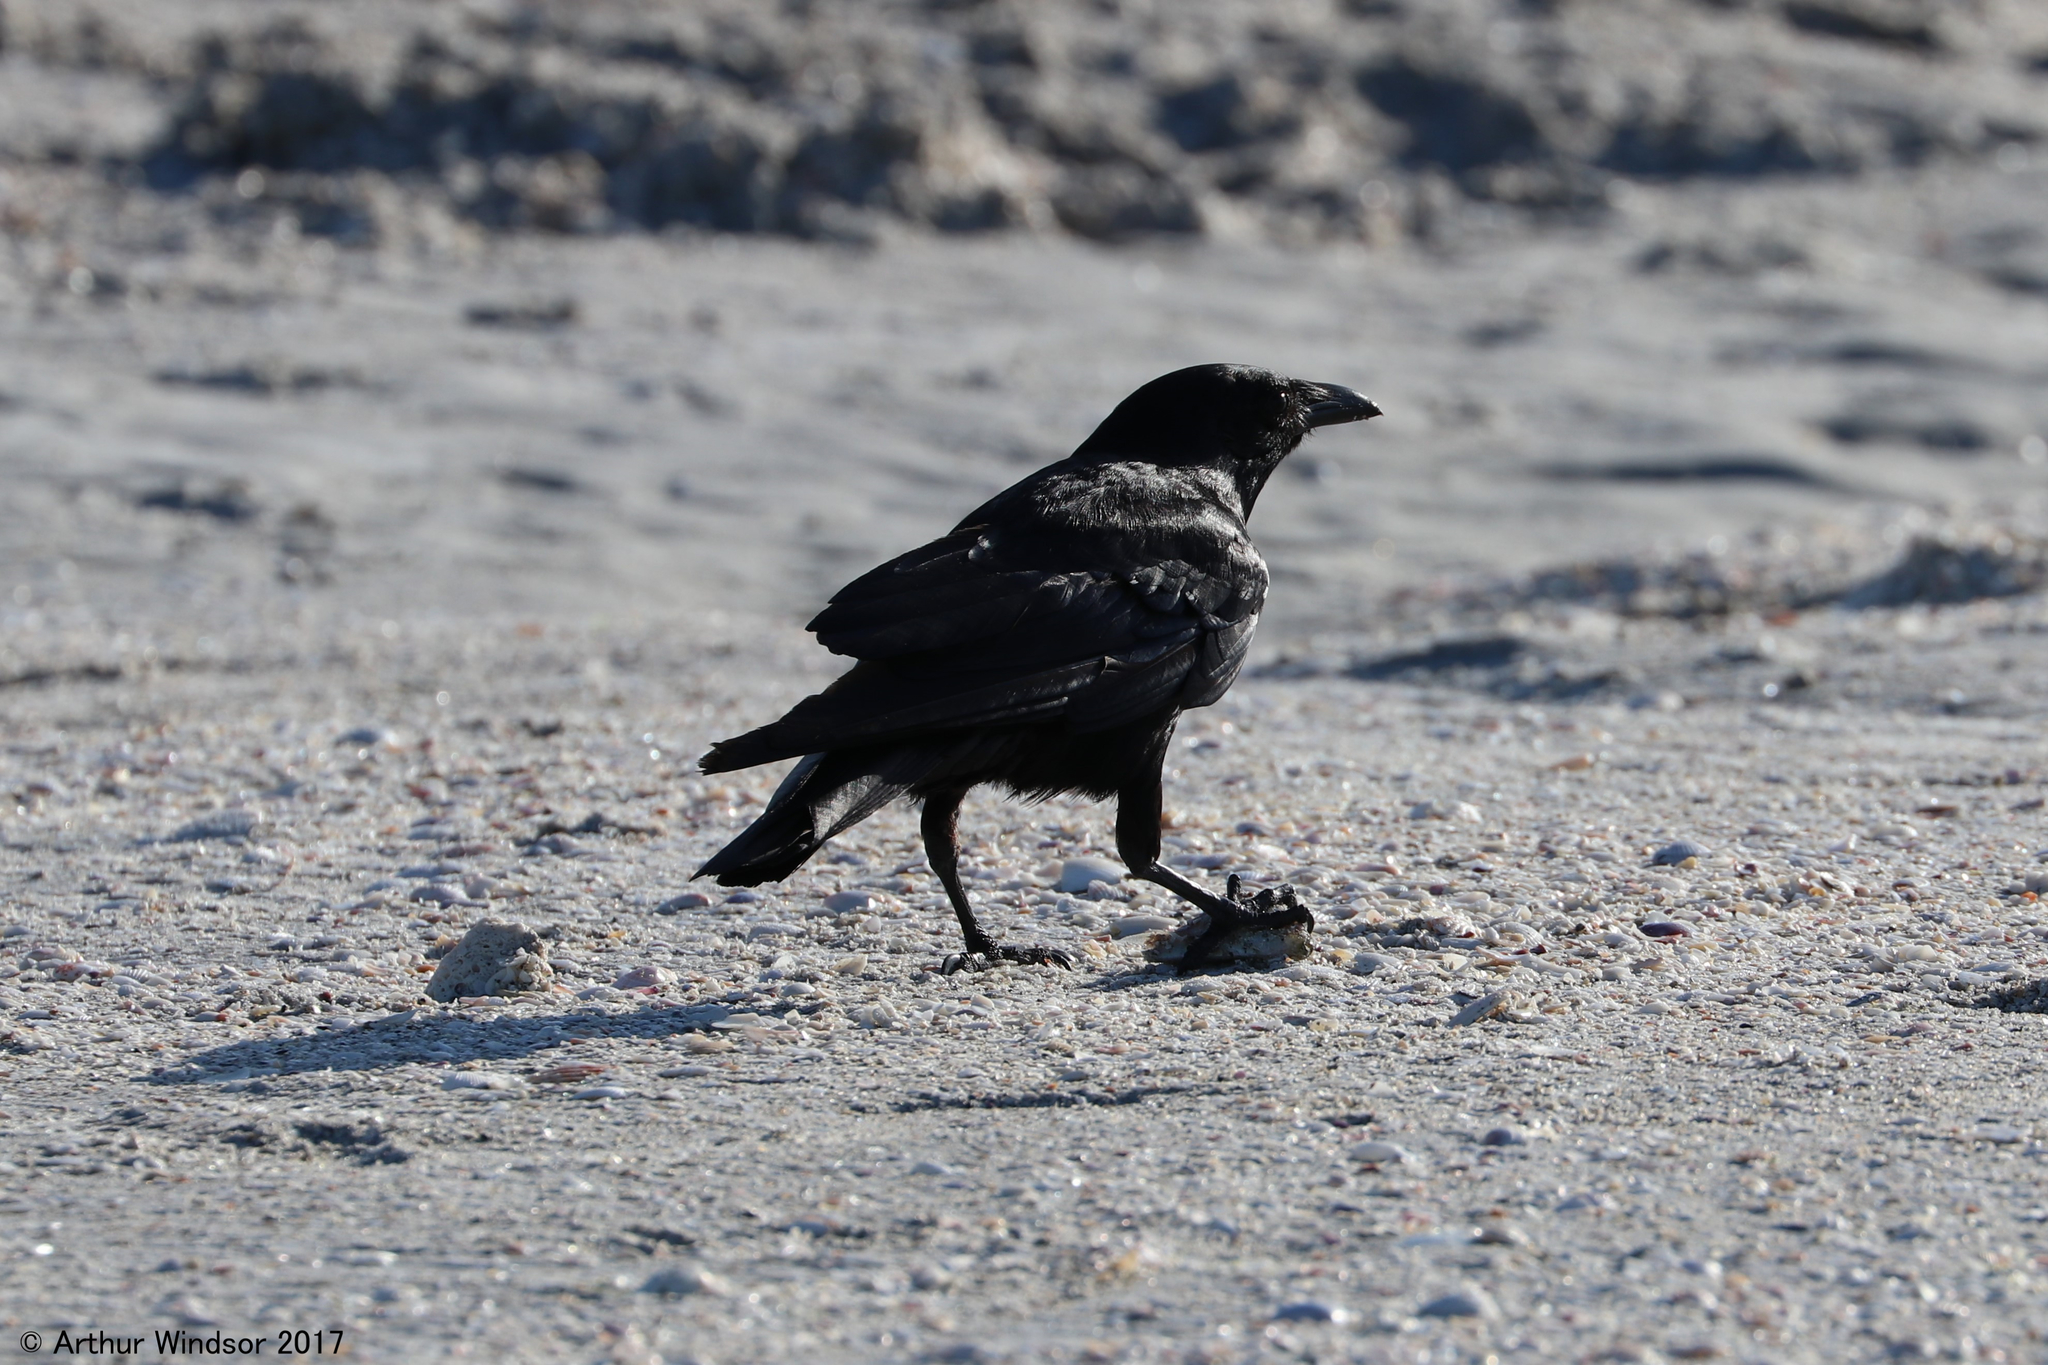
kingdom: Animalia
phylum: Chordata
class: Aves
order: Passeriformes
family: Corvidae
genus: Corvus
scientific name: Corvus ossifragus
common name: Fish crow
